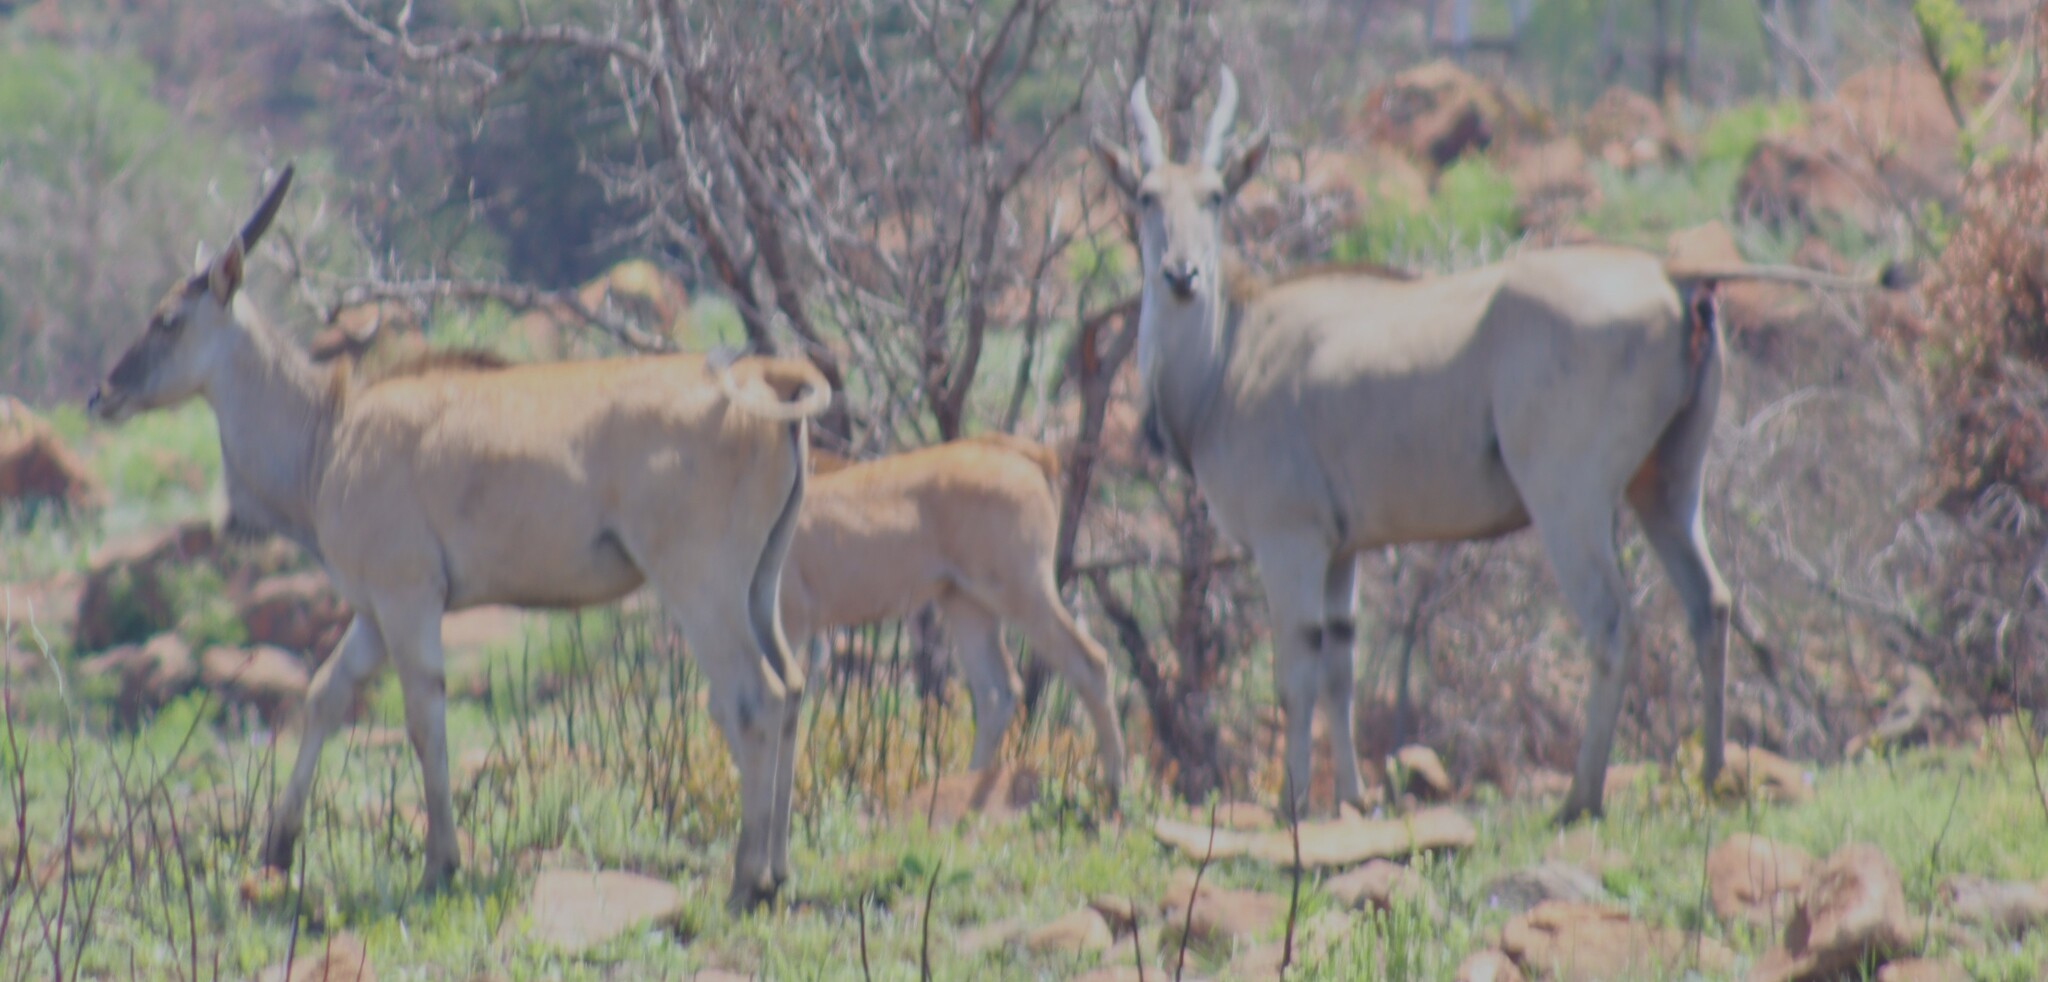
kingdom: Animalia
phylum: Chordata
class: Mammalia
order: Artiodactyla
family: Bovidae
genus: Taurotragus
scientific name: Taurotragus oryx
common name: Common eland
